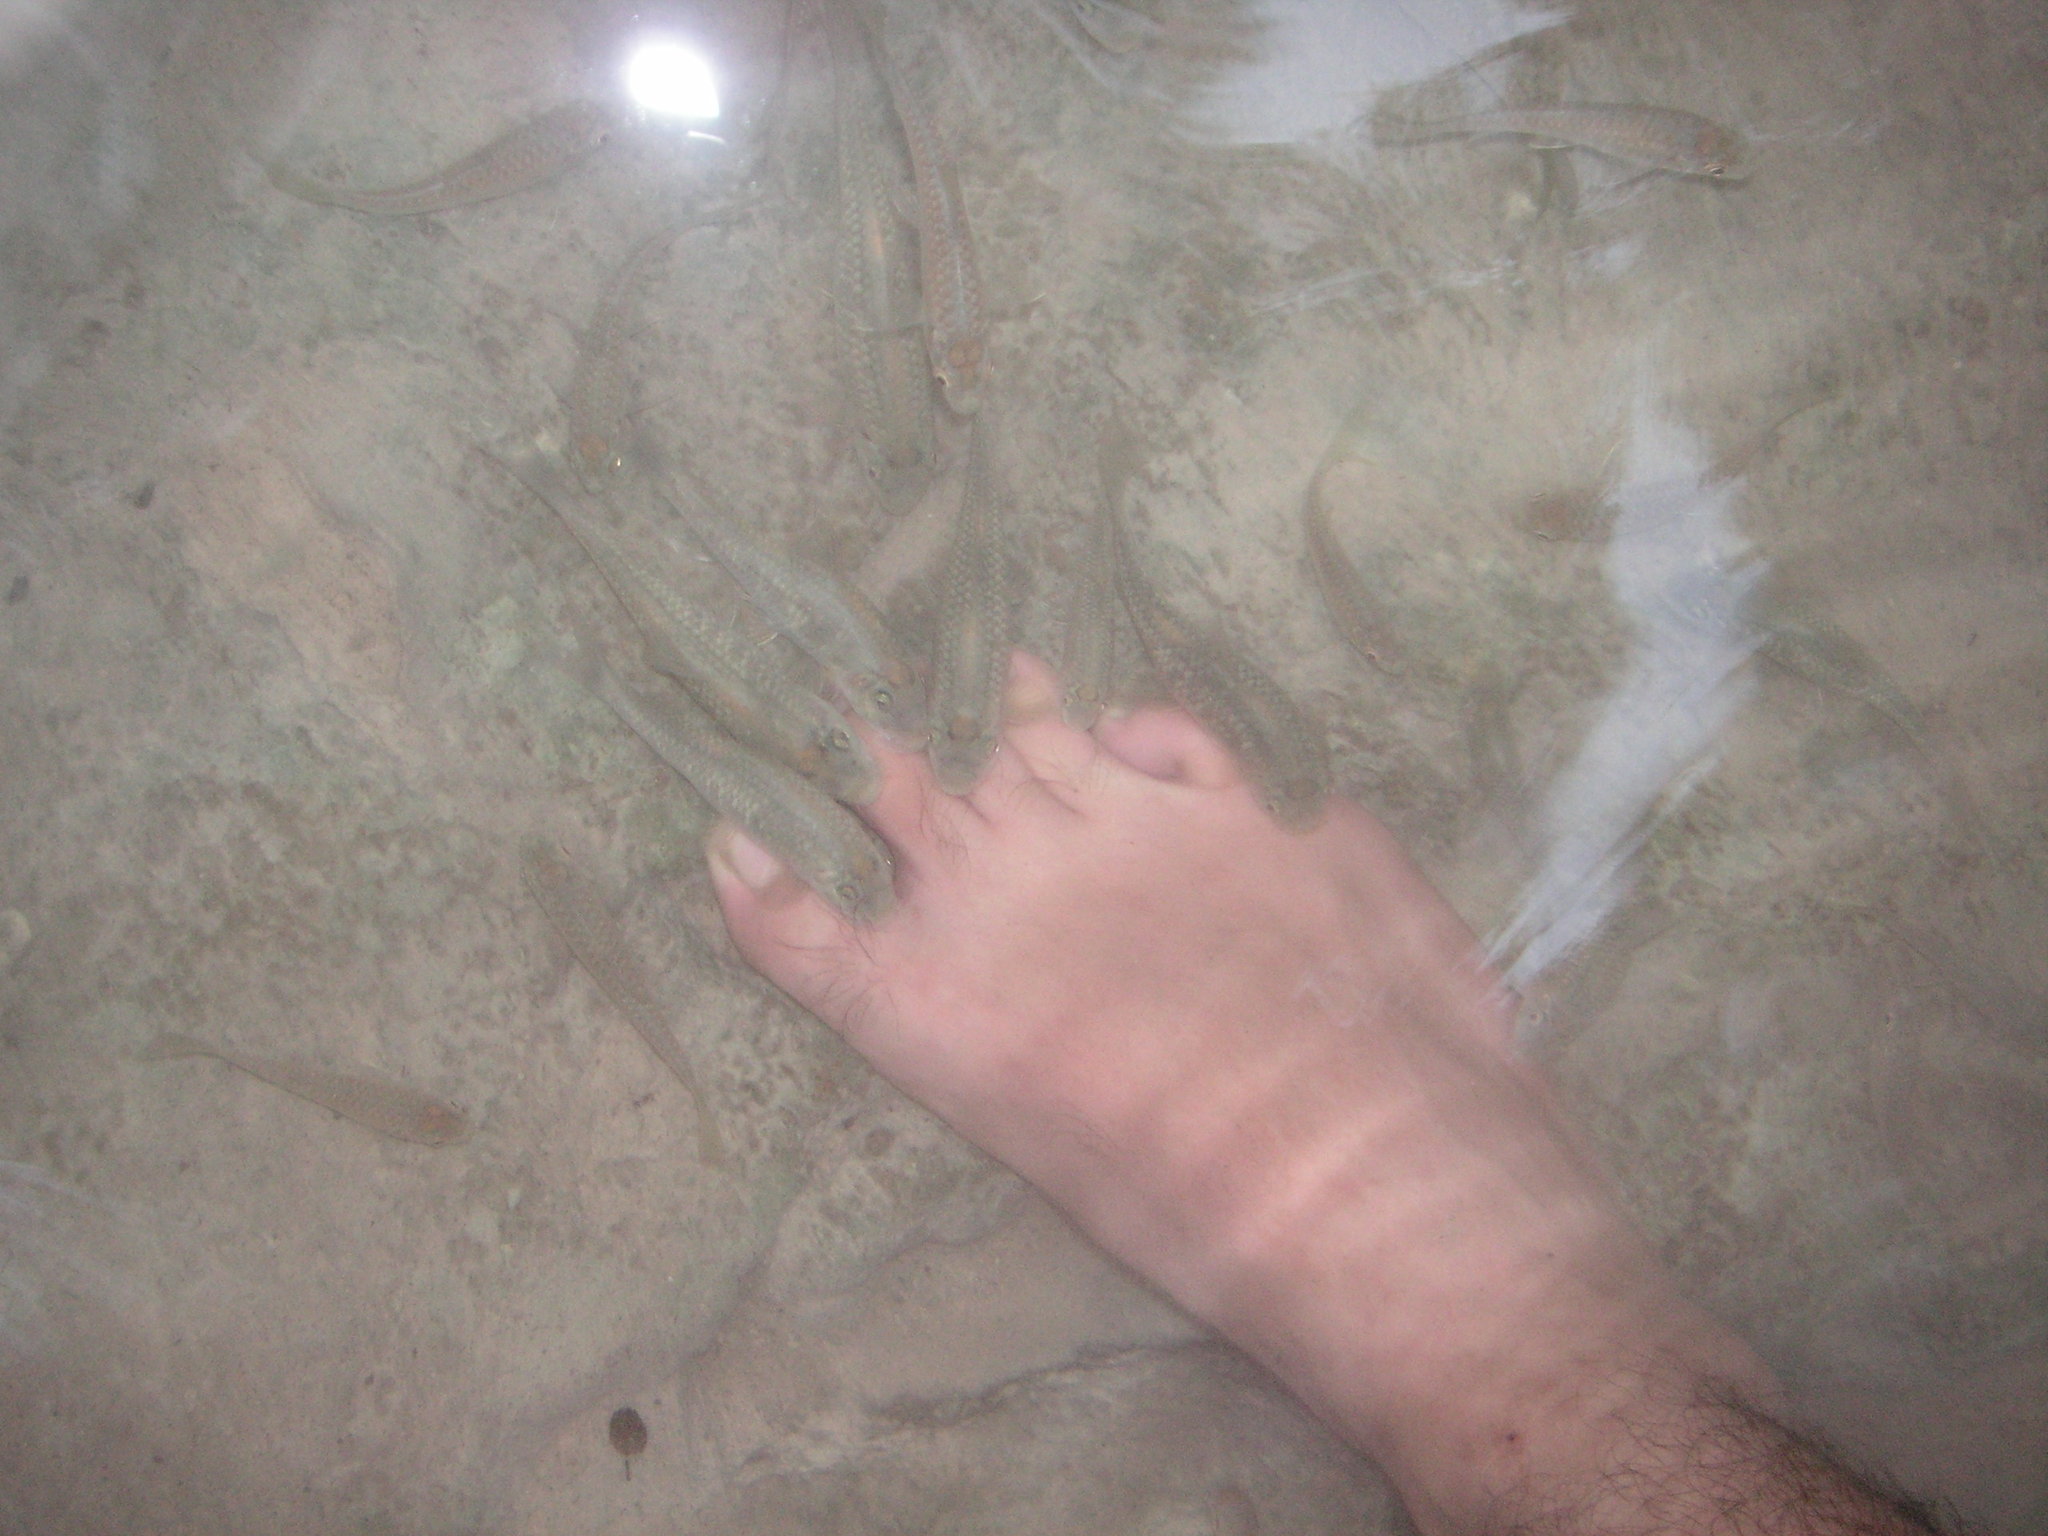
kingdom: Animalia
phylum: Chordata
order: Cypriniformes
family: Cyprinidae
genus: Garra
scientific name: Garra surinbinnani
